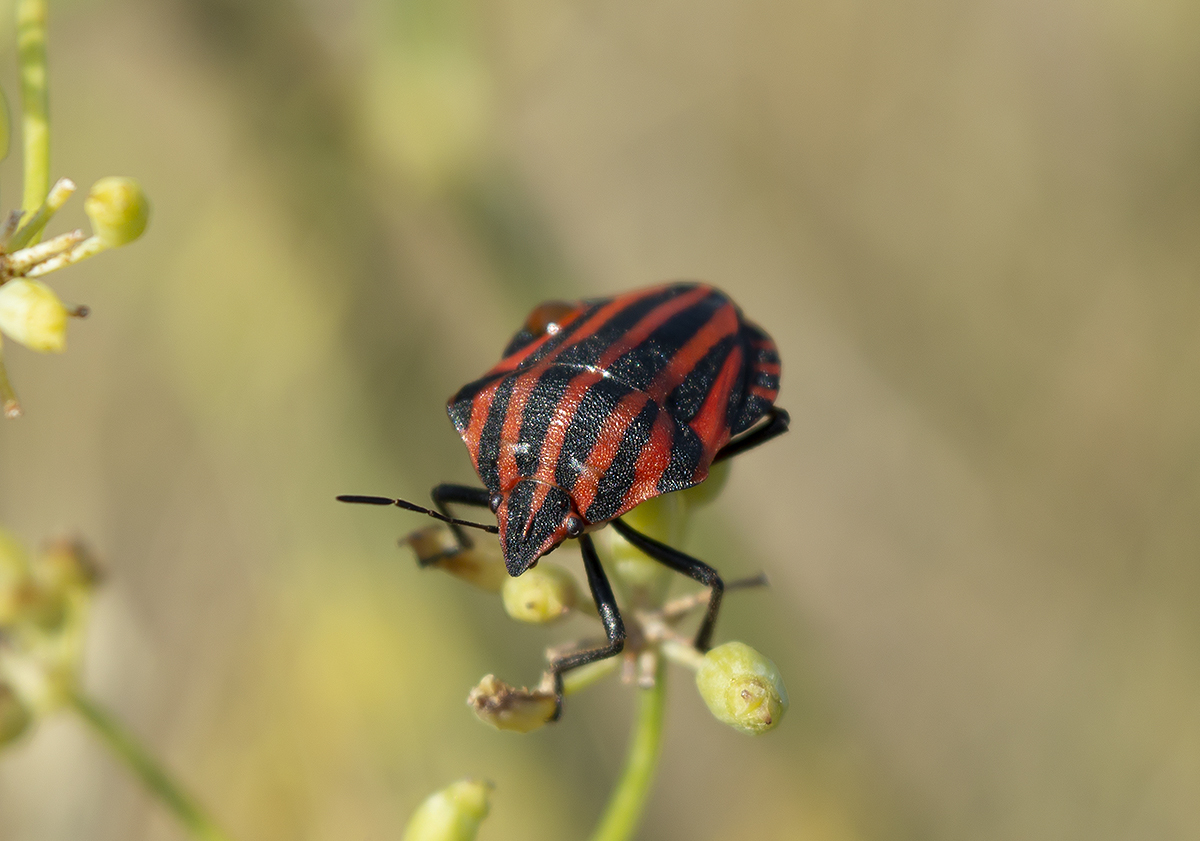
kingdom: Animalia
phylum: Arthropoda
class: Insecta
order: Hemiptera
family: Pentatomidae
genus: Graphosoma
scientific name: Graphosoma italicum
